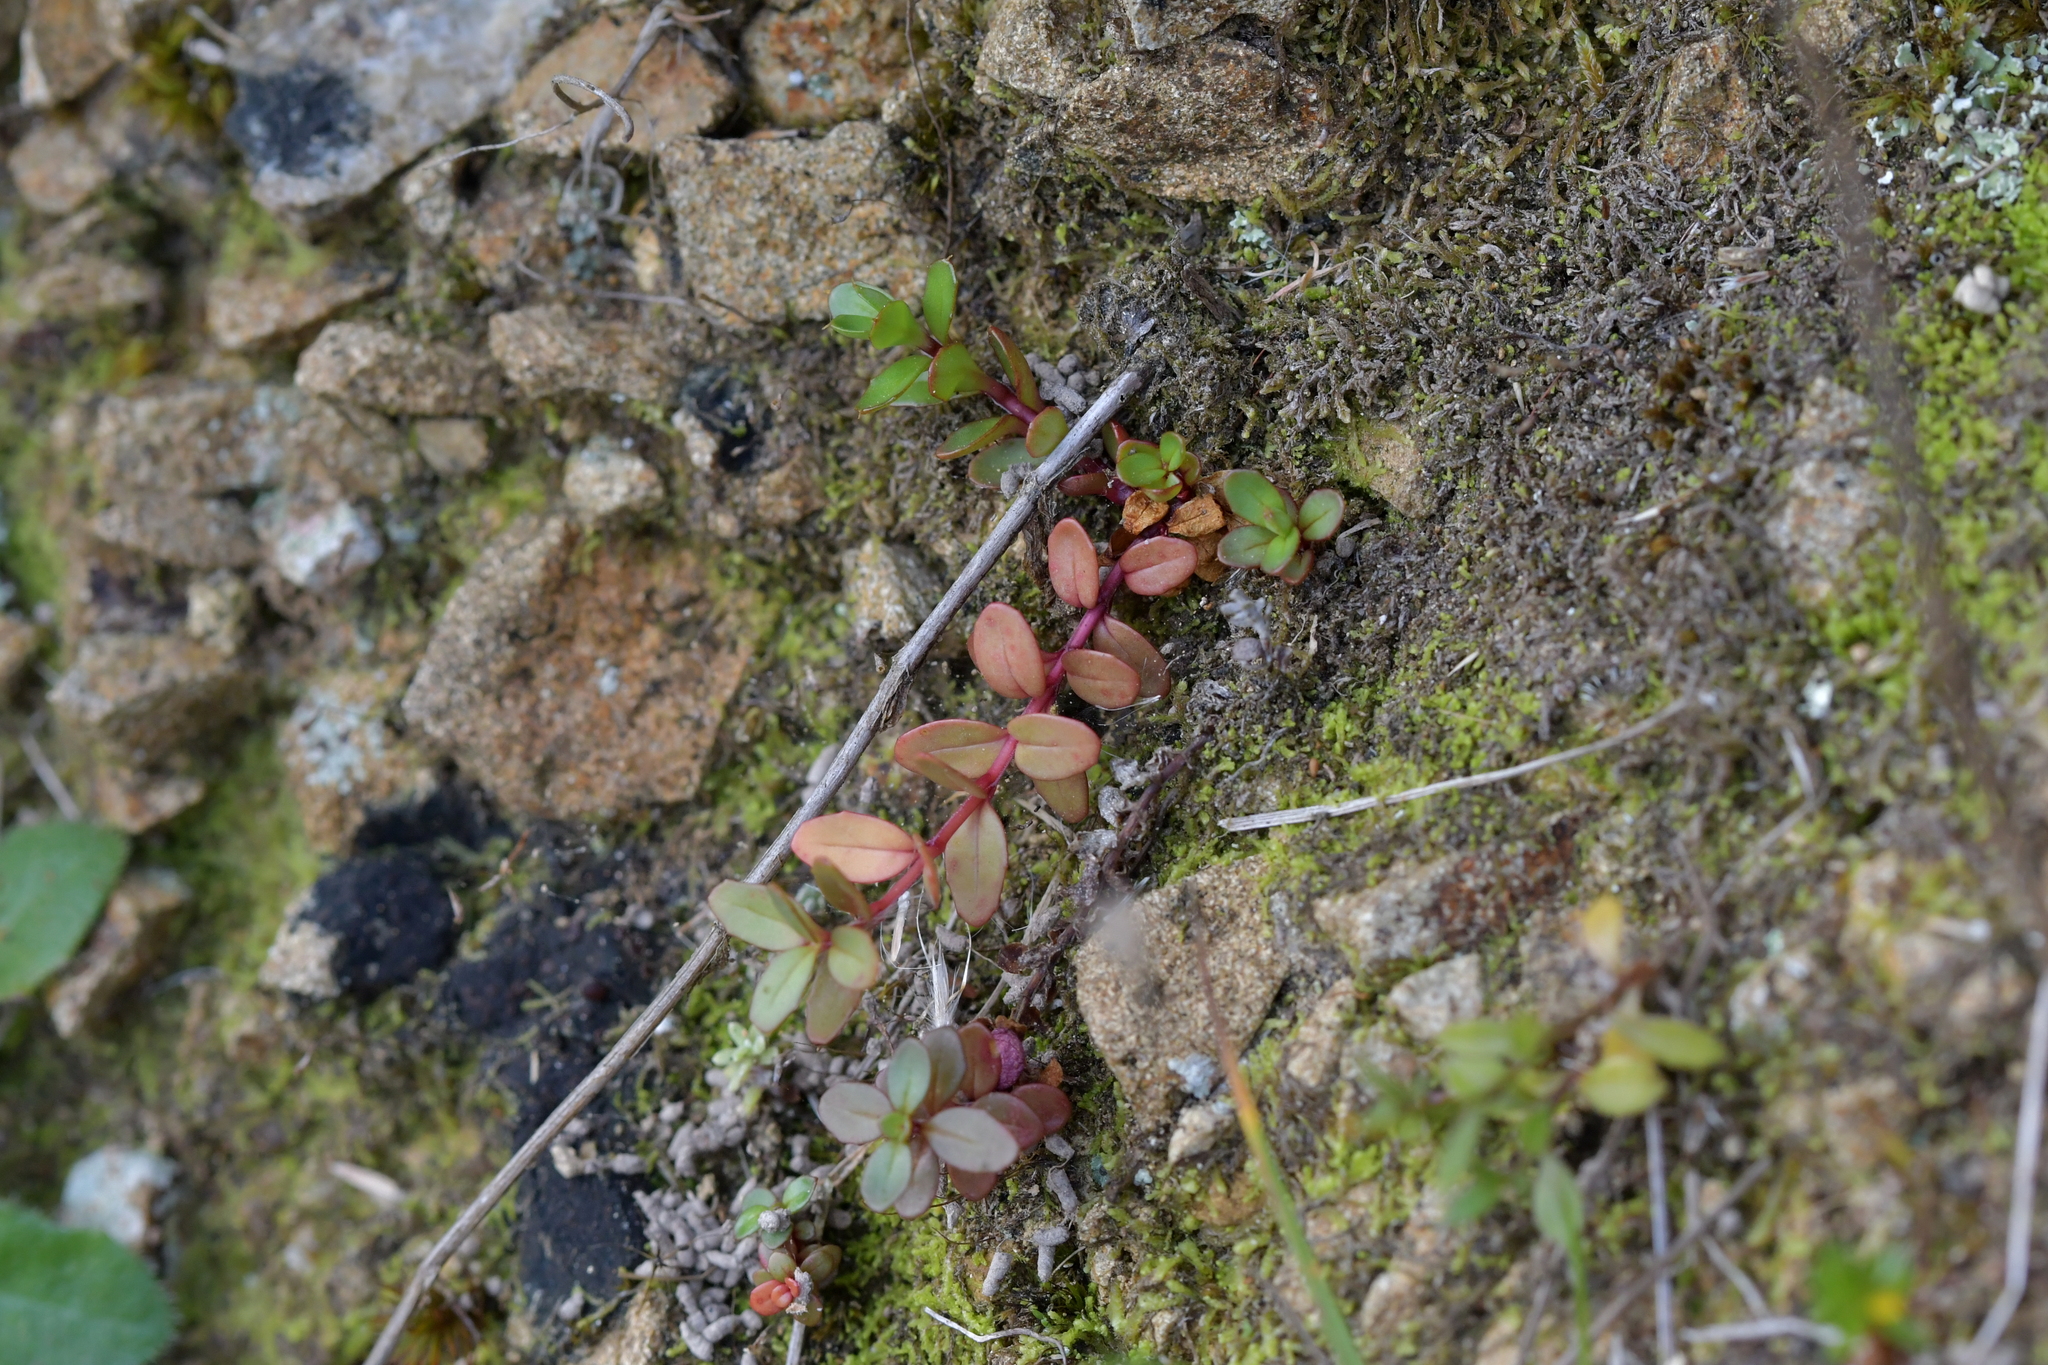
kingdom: Plantae
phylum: Tracheophyta
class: Magnoliopsida
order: Myrtales
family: Onagraceae
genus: Epilobium
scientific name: Epilobium alsinoides
